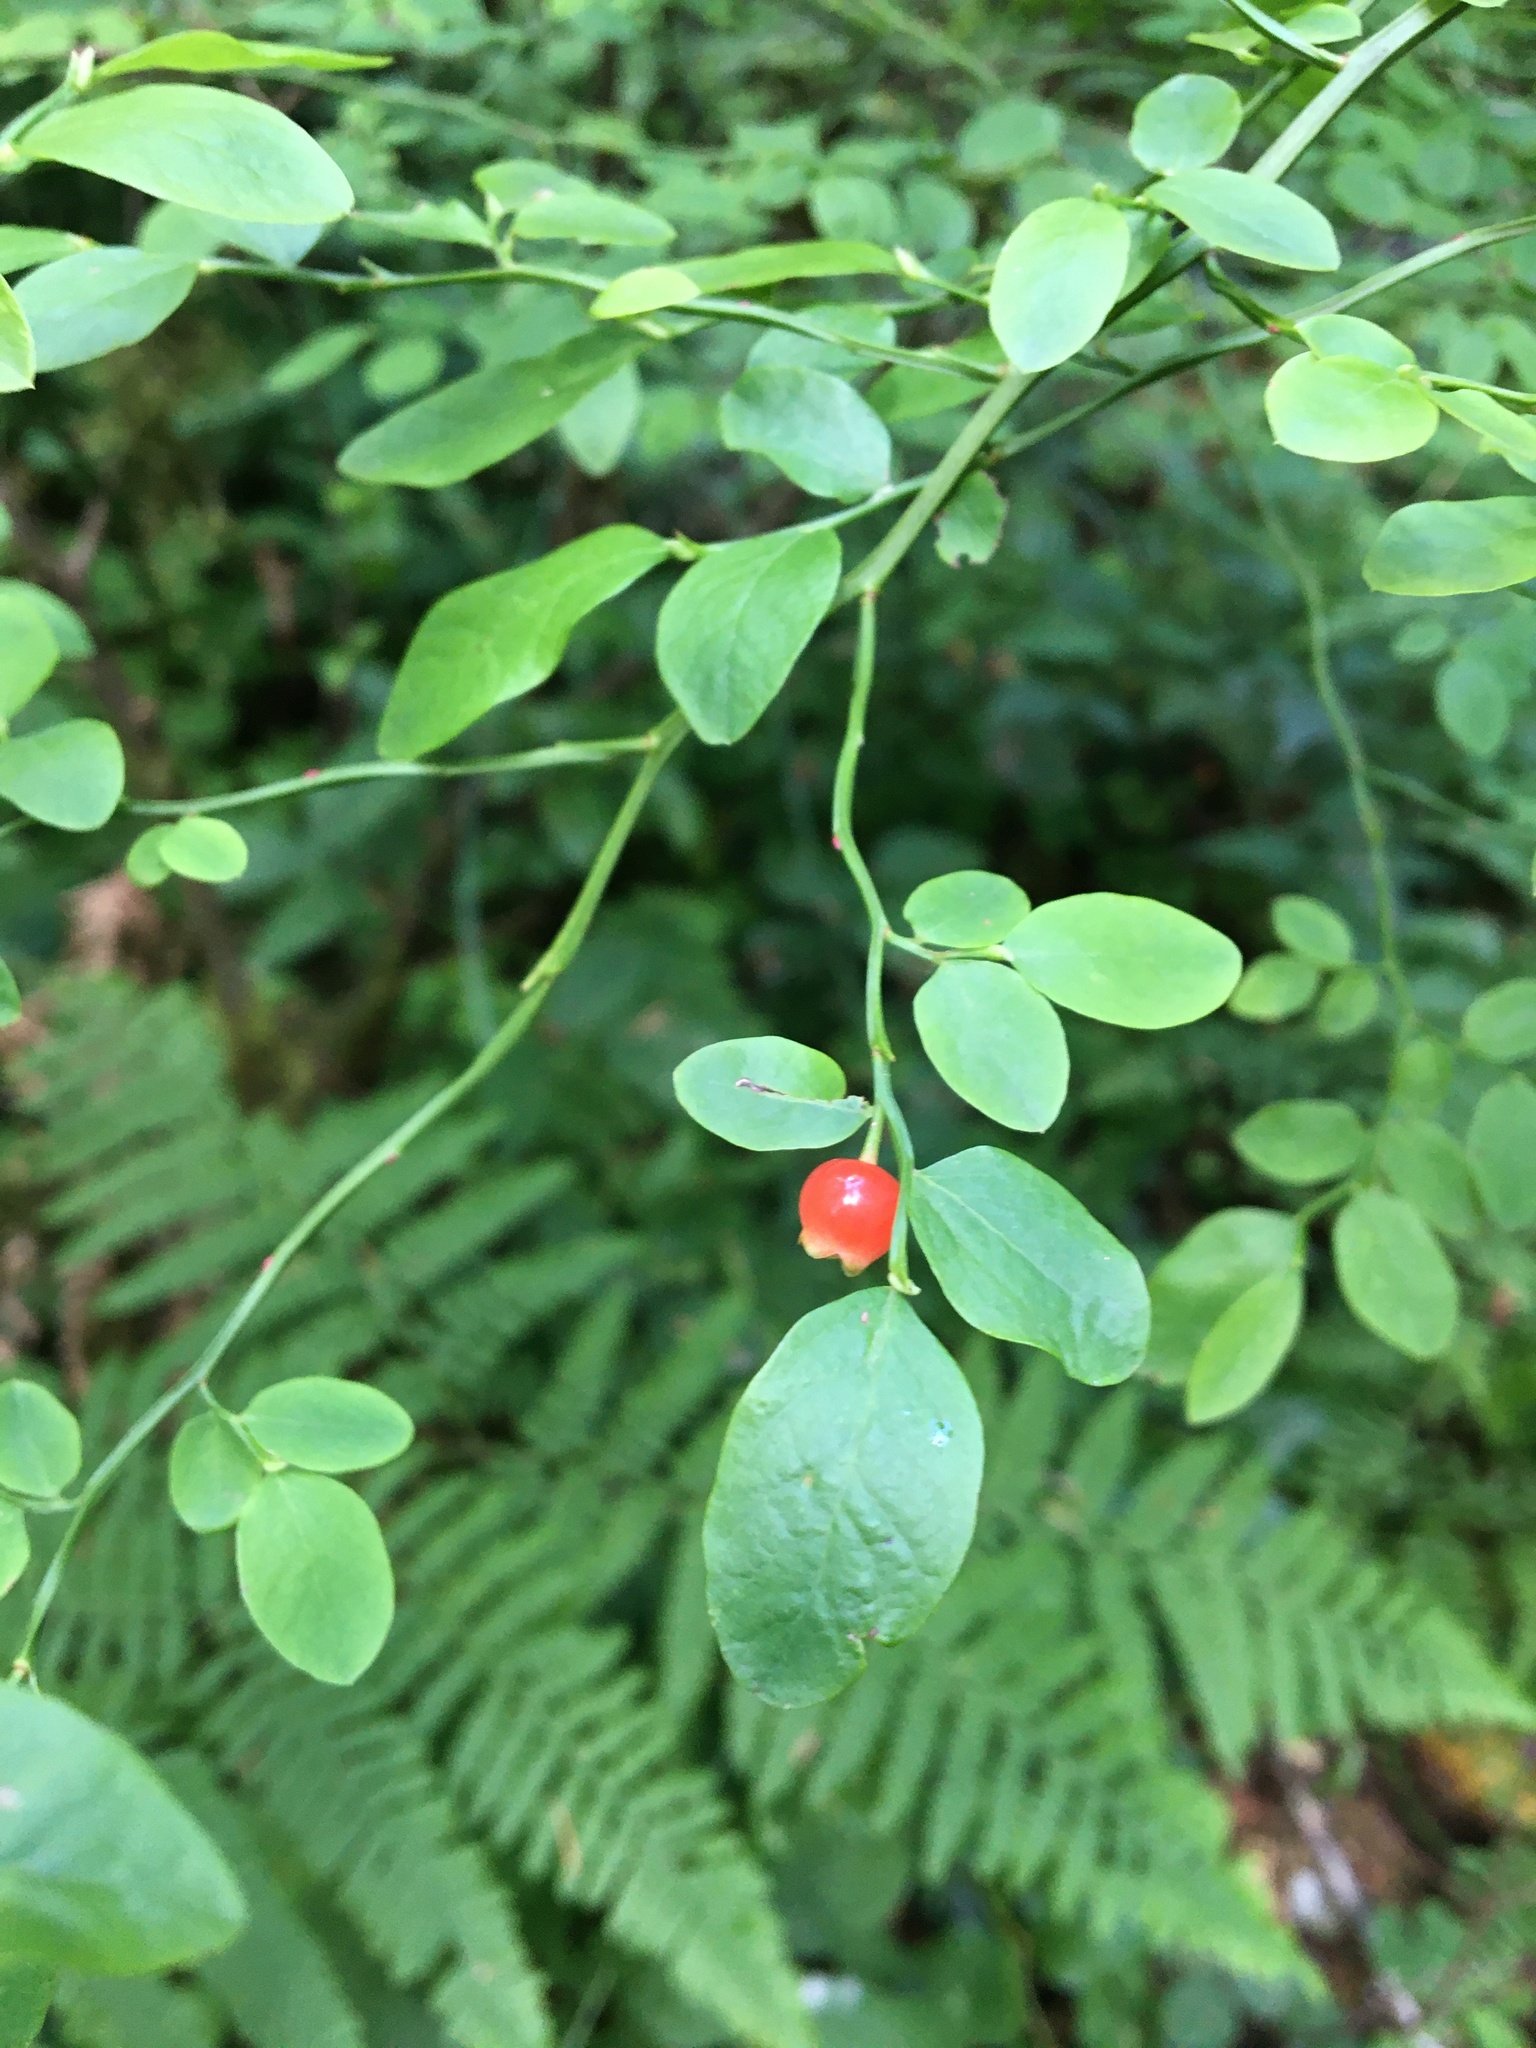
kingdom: Plantae
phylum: Tracheophyta
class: Magnoliopsida
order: Ericales
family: Ericaceae
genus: Vaccinium
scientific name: Vaccinium parvifolium
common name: Red-huckleberry
